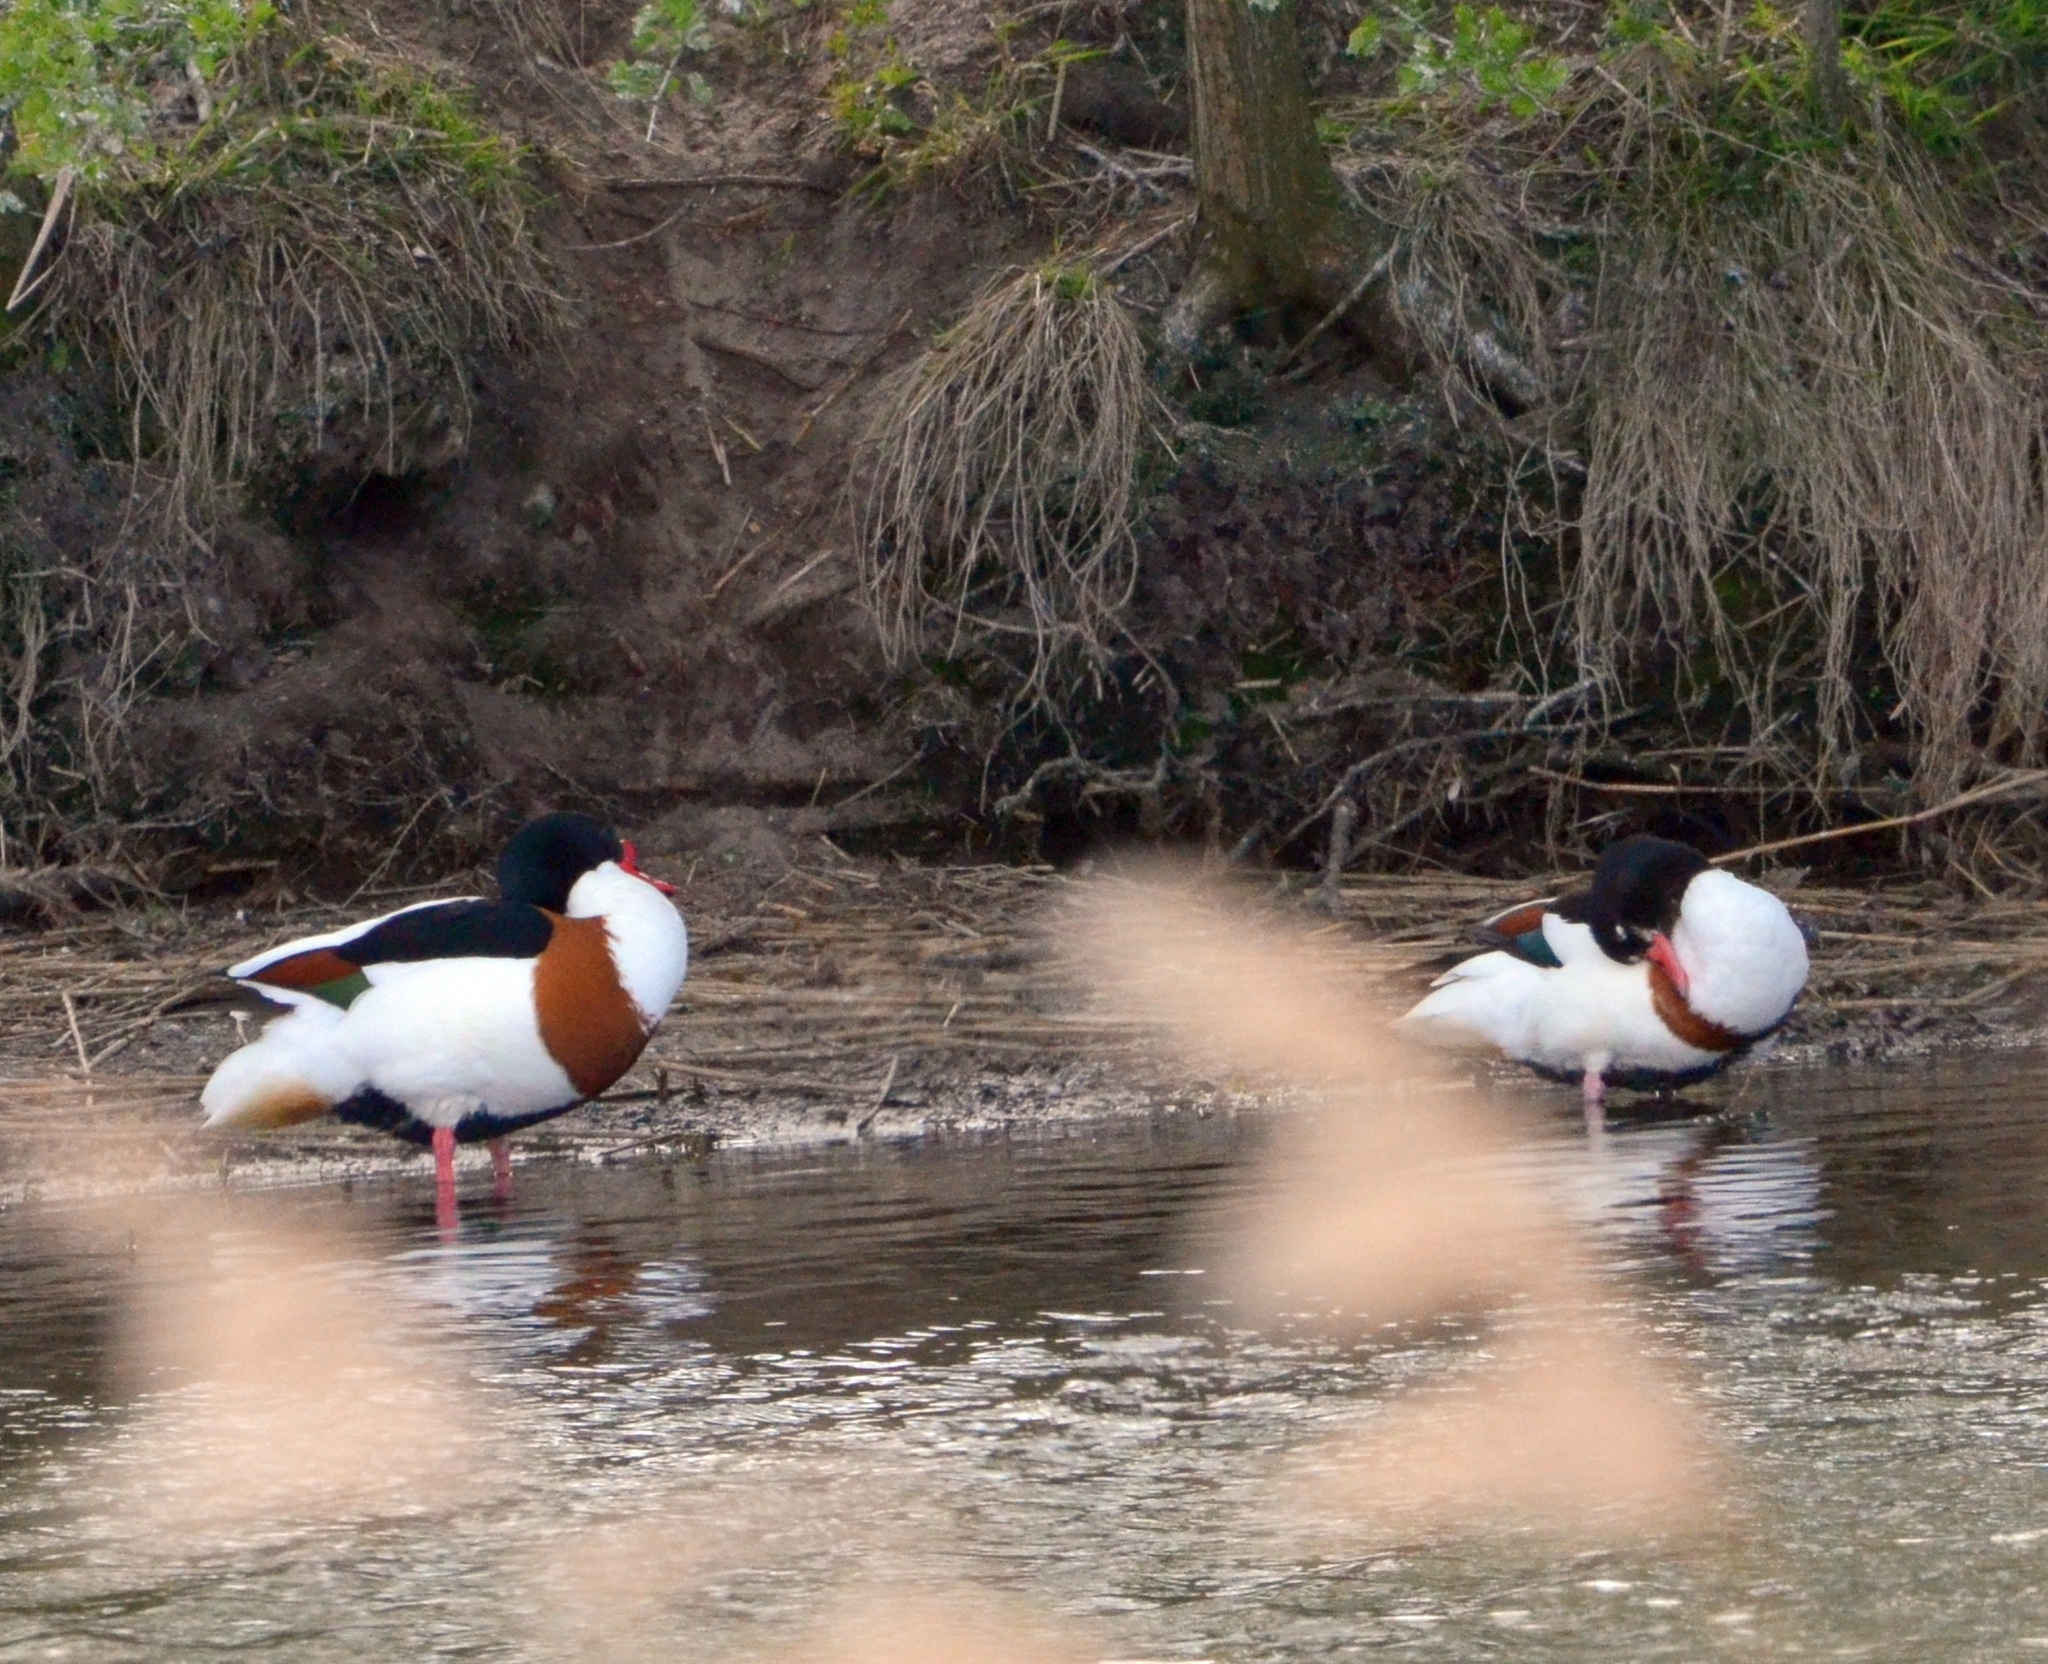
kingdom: Animalia
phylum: Chordata
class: Aves
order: Anseriformes
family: Anatidae
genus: Tadorna
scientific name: Tadorna tadorna
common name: Common shelduck
